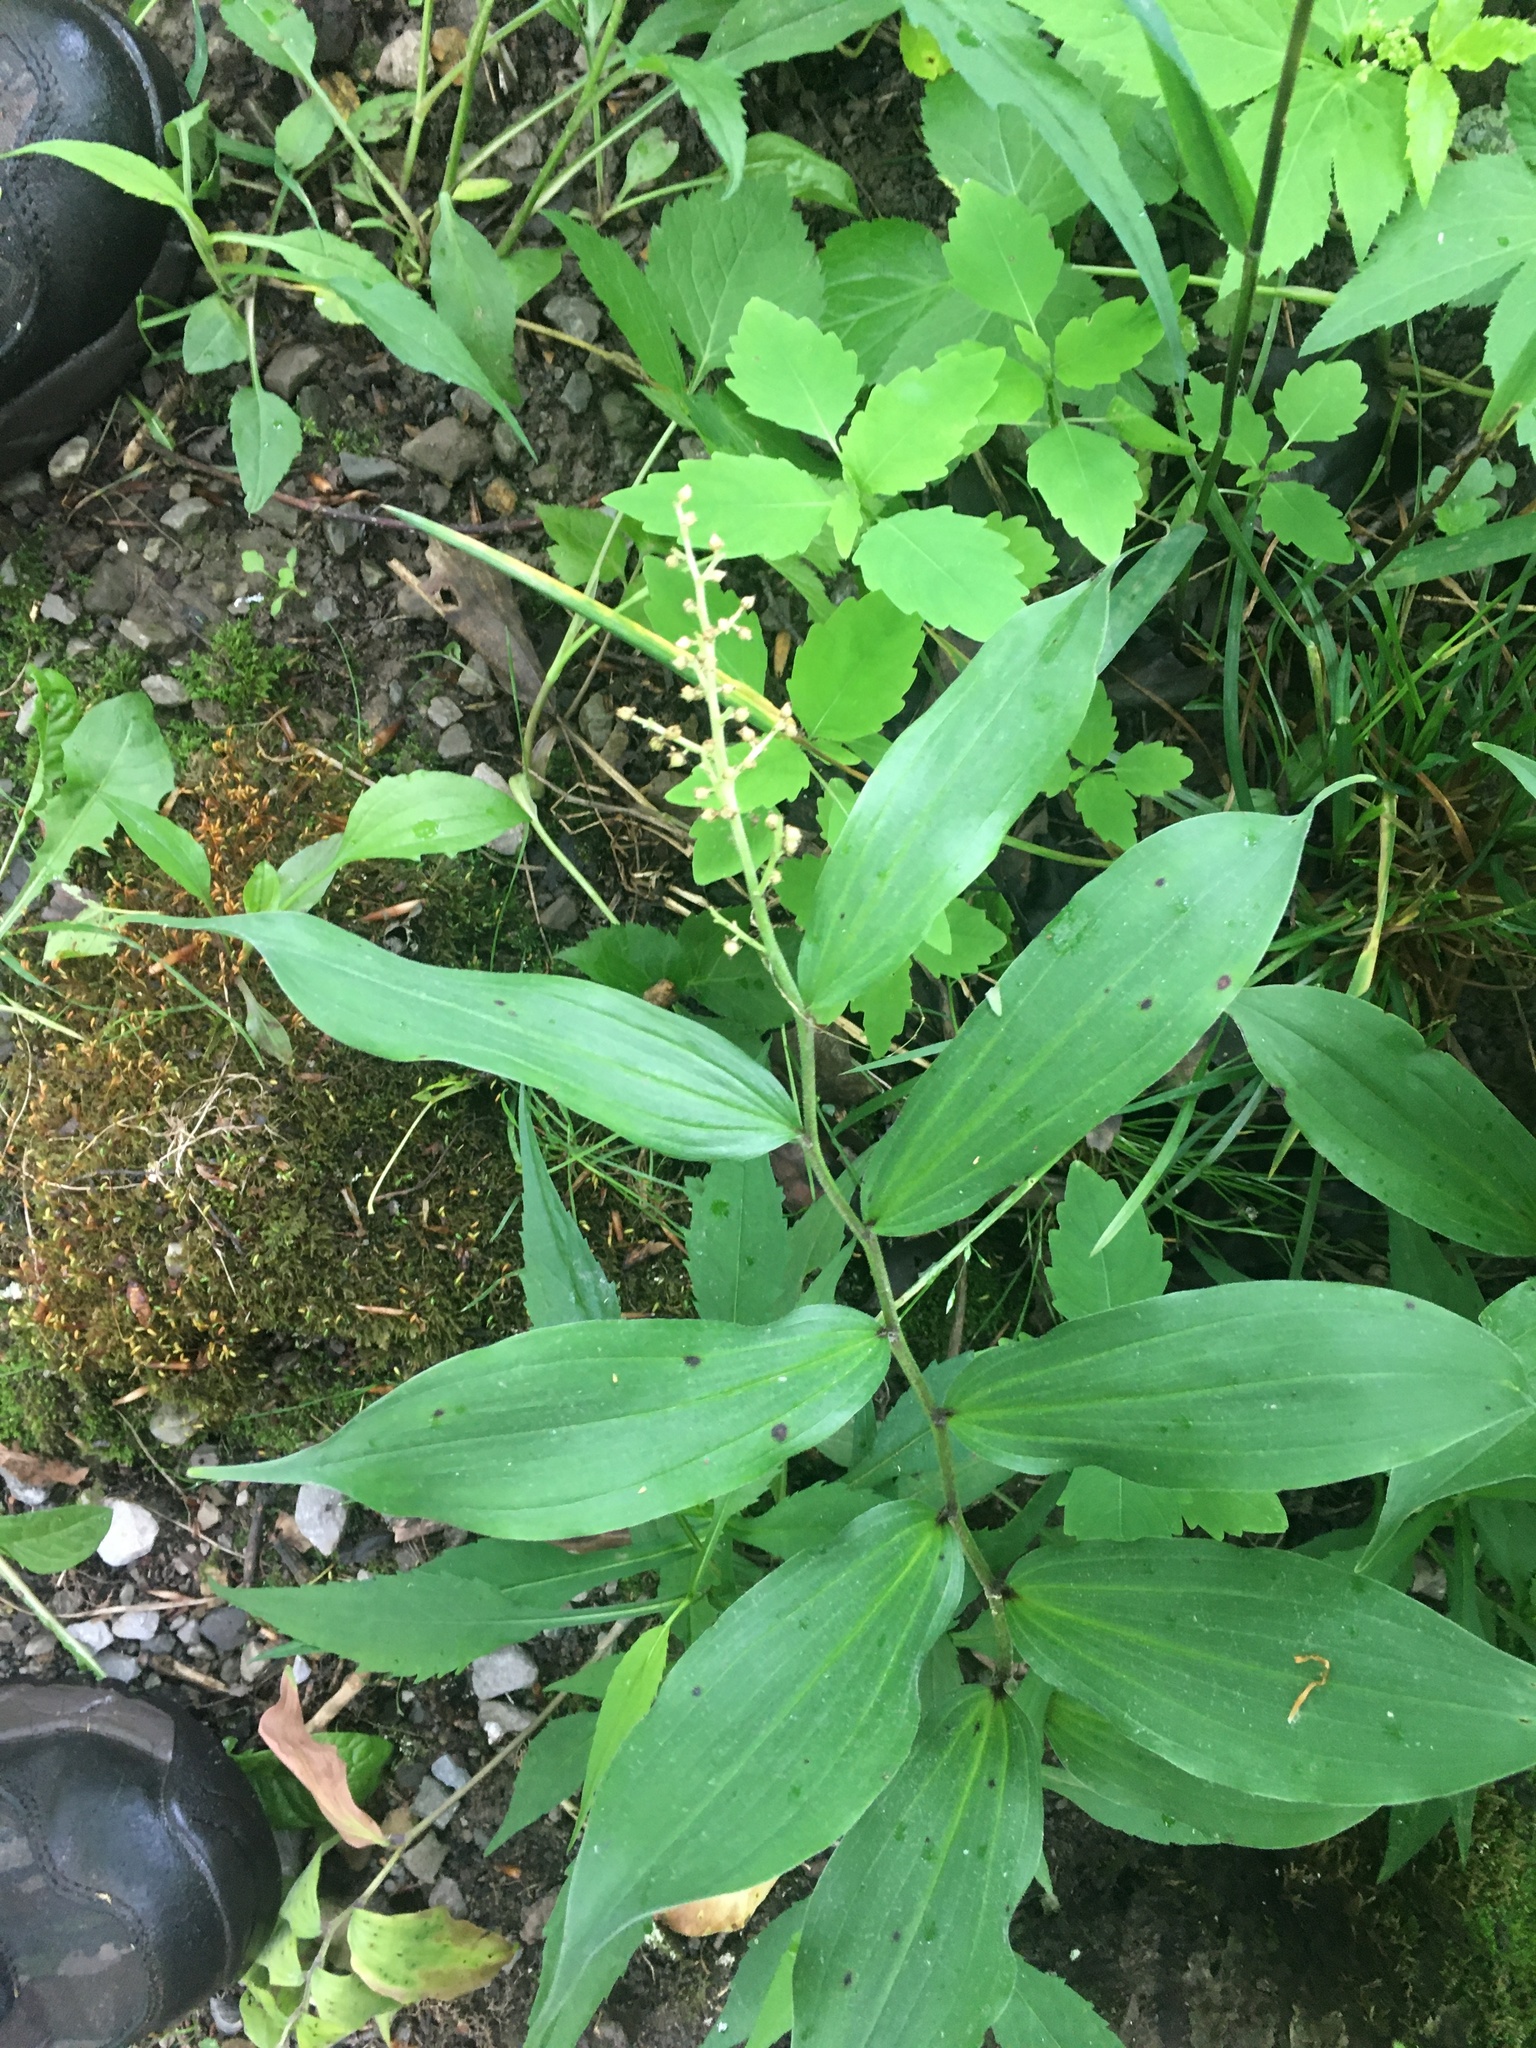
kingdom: Plantae
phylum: Tracheophyta
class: Liliopsida
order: Asparagales
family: Asparagaceae
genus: Maianthemum
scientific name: Maianthemum racemosum
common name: False spikenard
